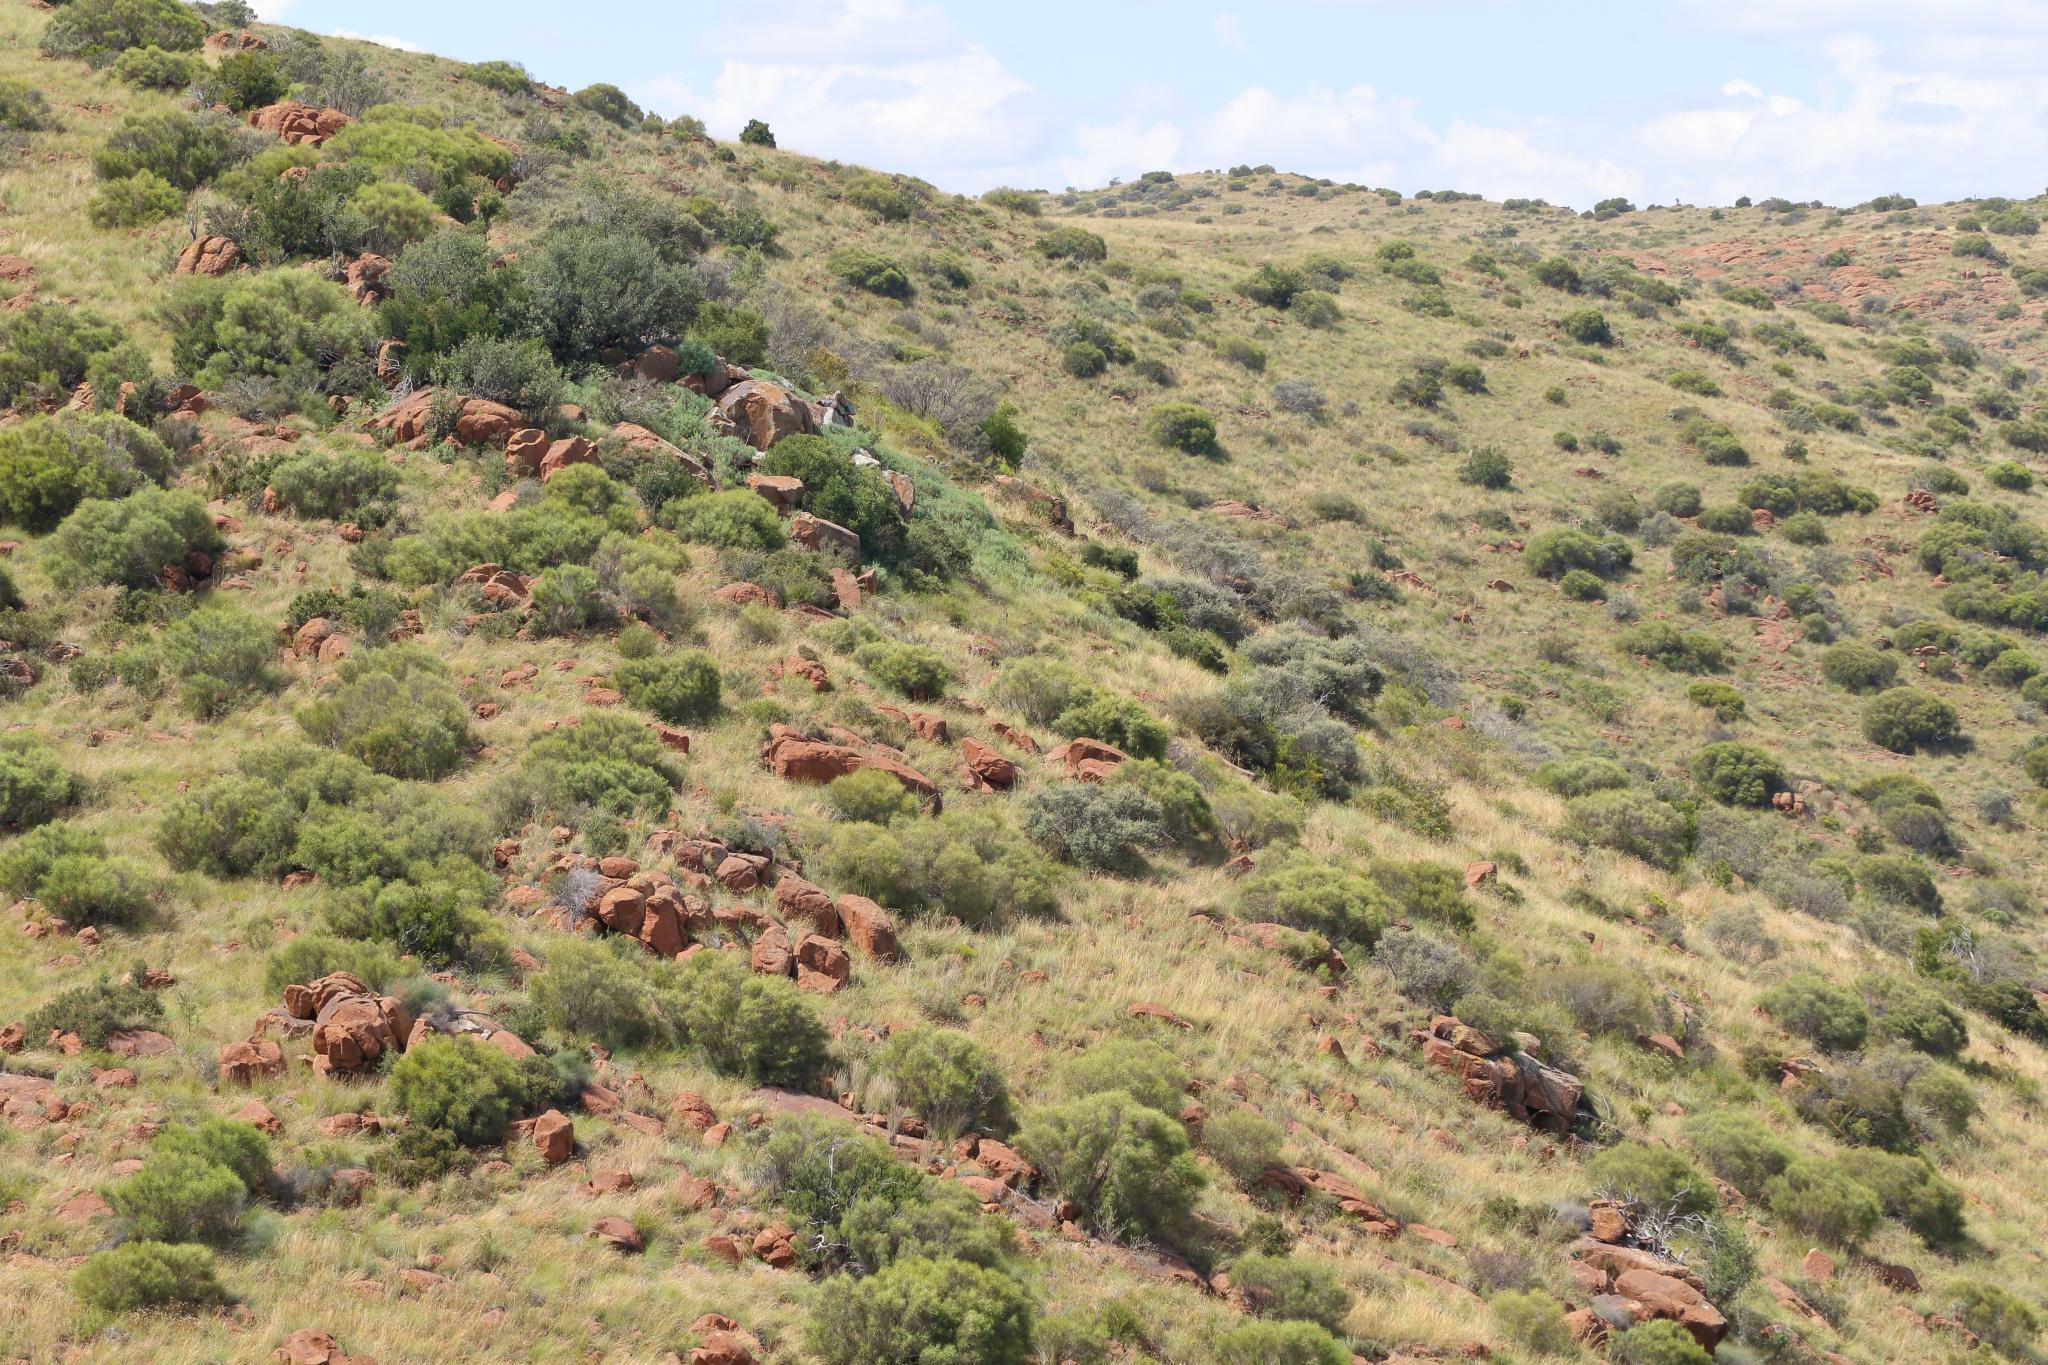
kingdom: Plantae
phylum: Tracheophyta
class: Magnoliopsida
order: Sapindales
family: Anacardiaceae
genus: Searsia
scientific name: Searsia erosa
